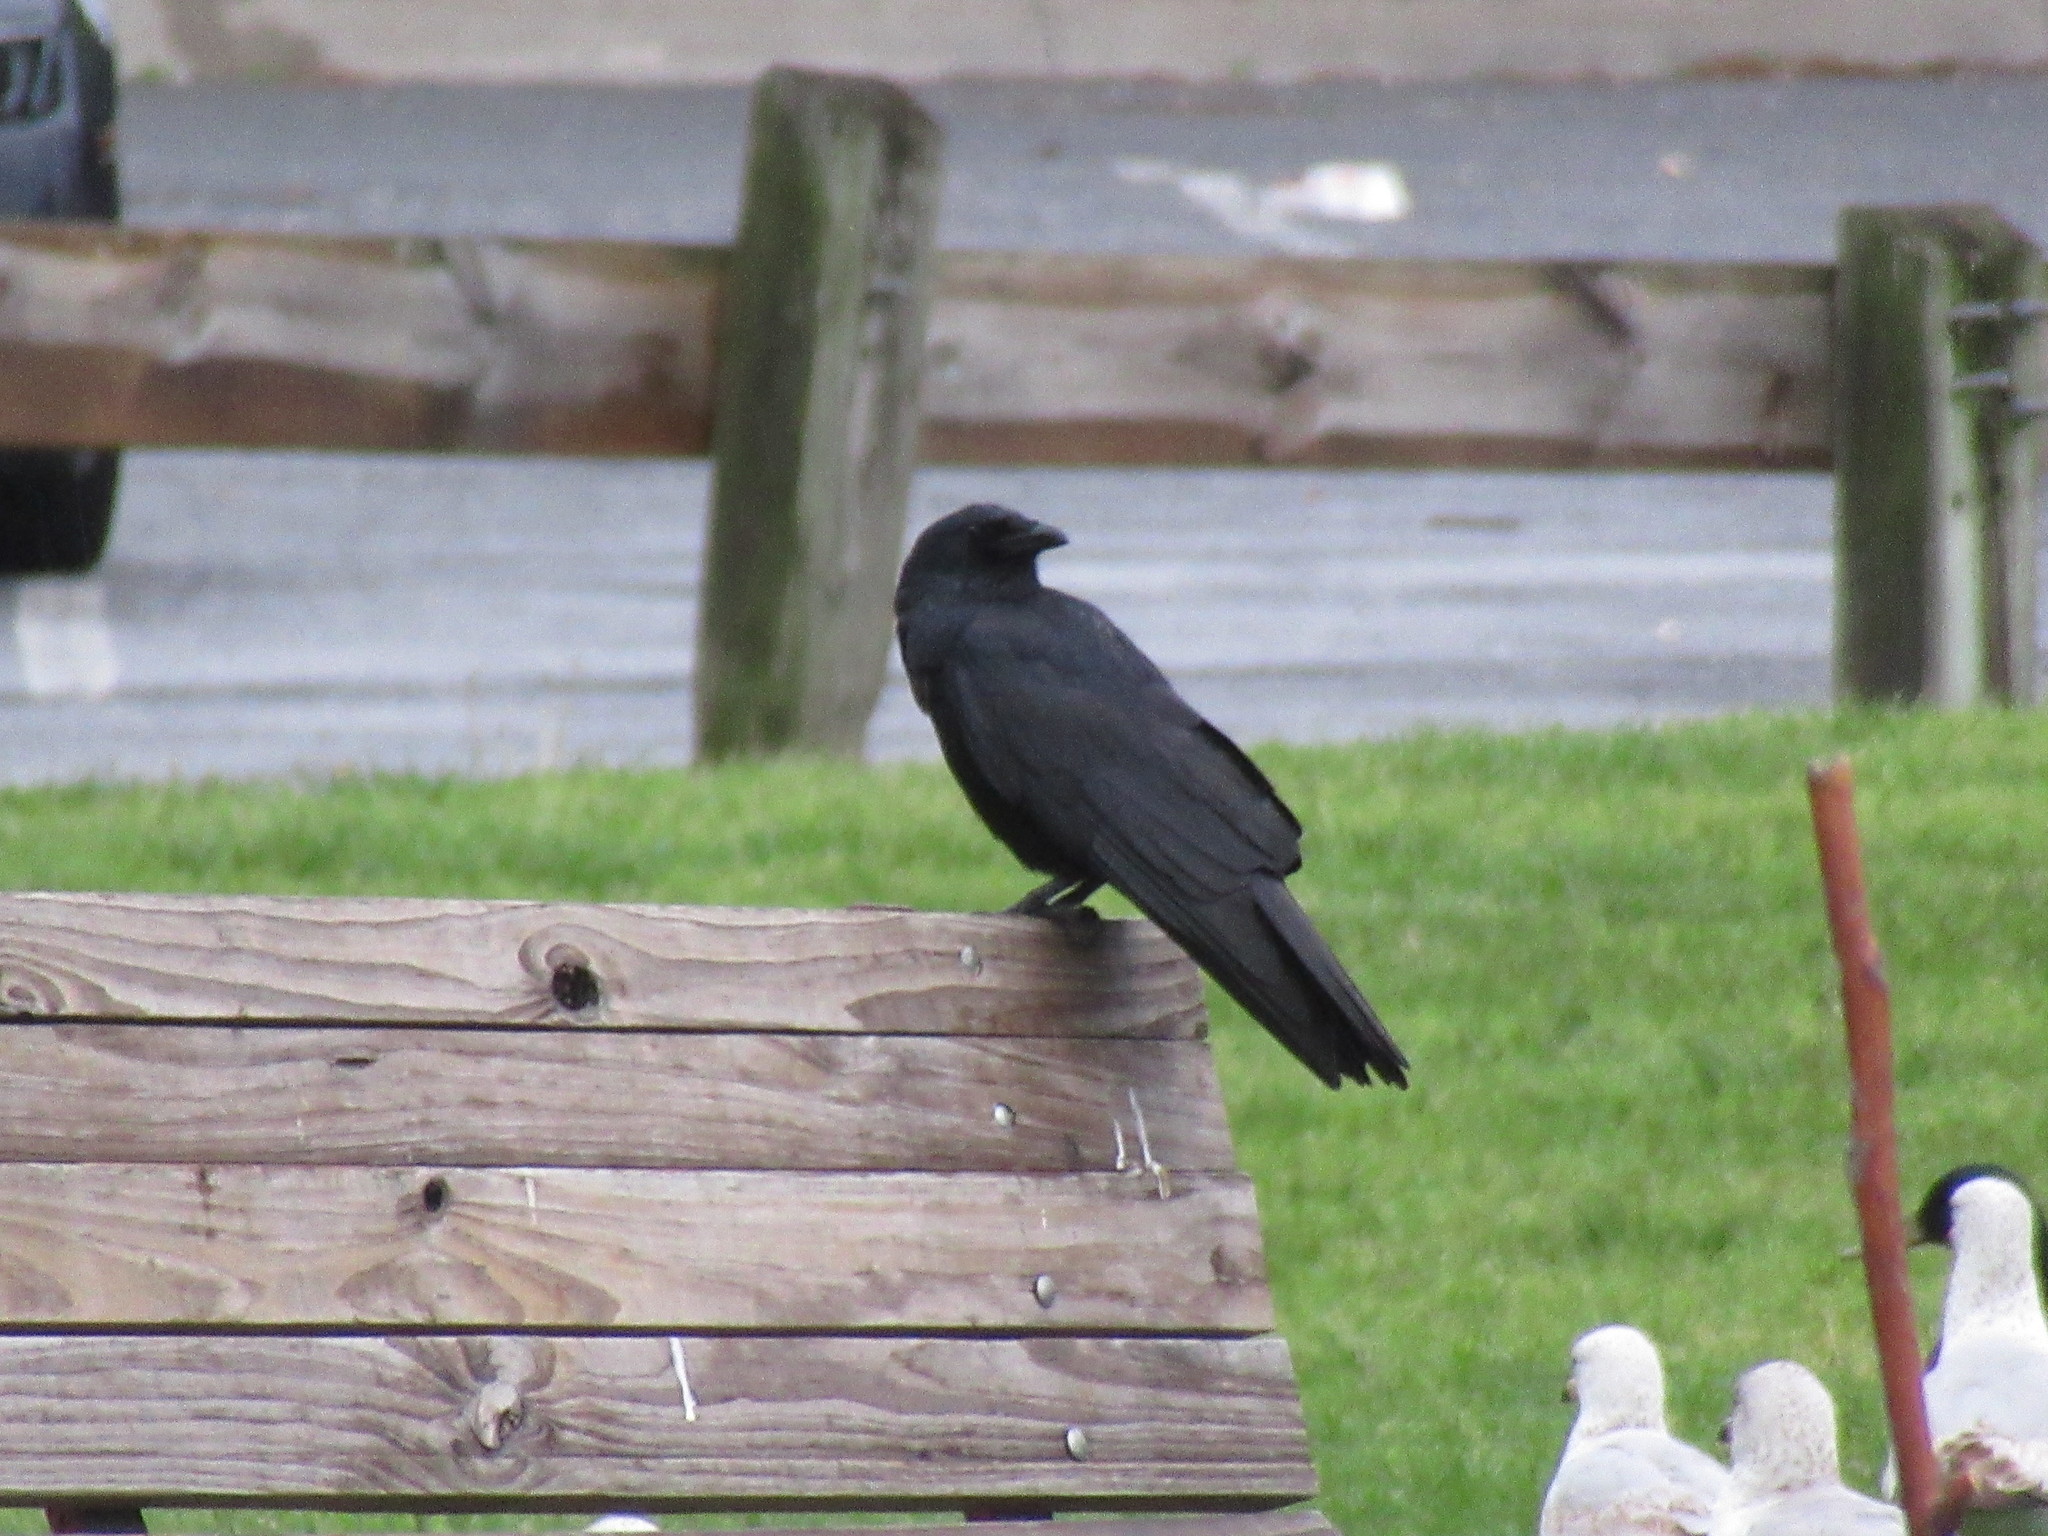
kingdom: Animalia
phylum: Chordata
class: Aves
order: Passeriformes
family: Corvidae
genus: Corvus
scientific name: Corvus ossifragus
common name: Fish crow
